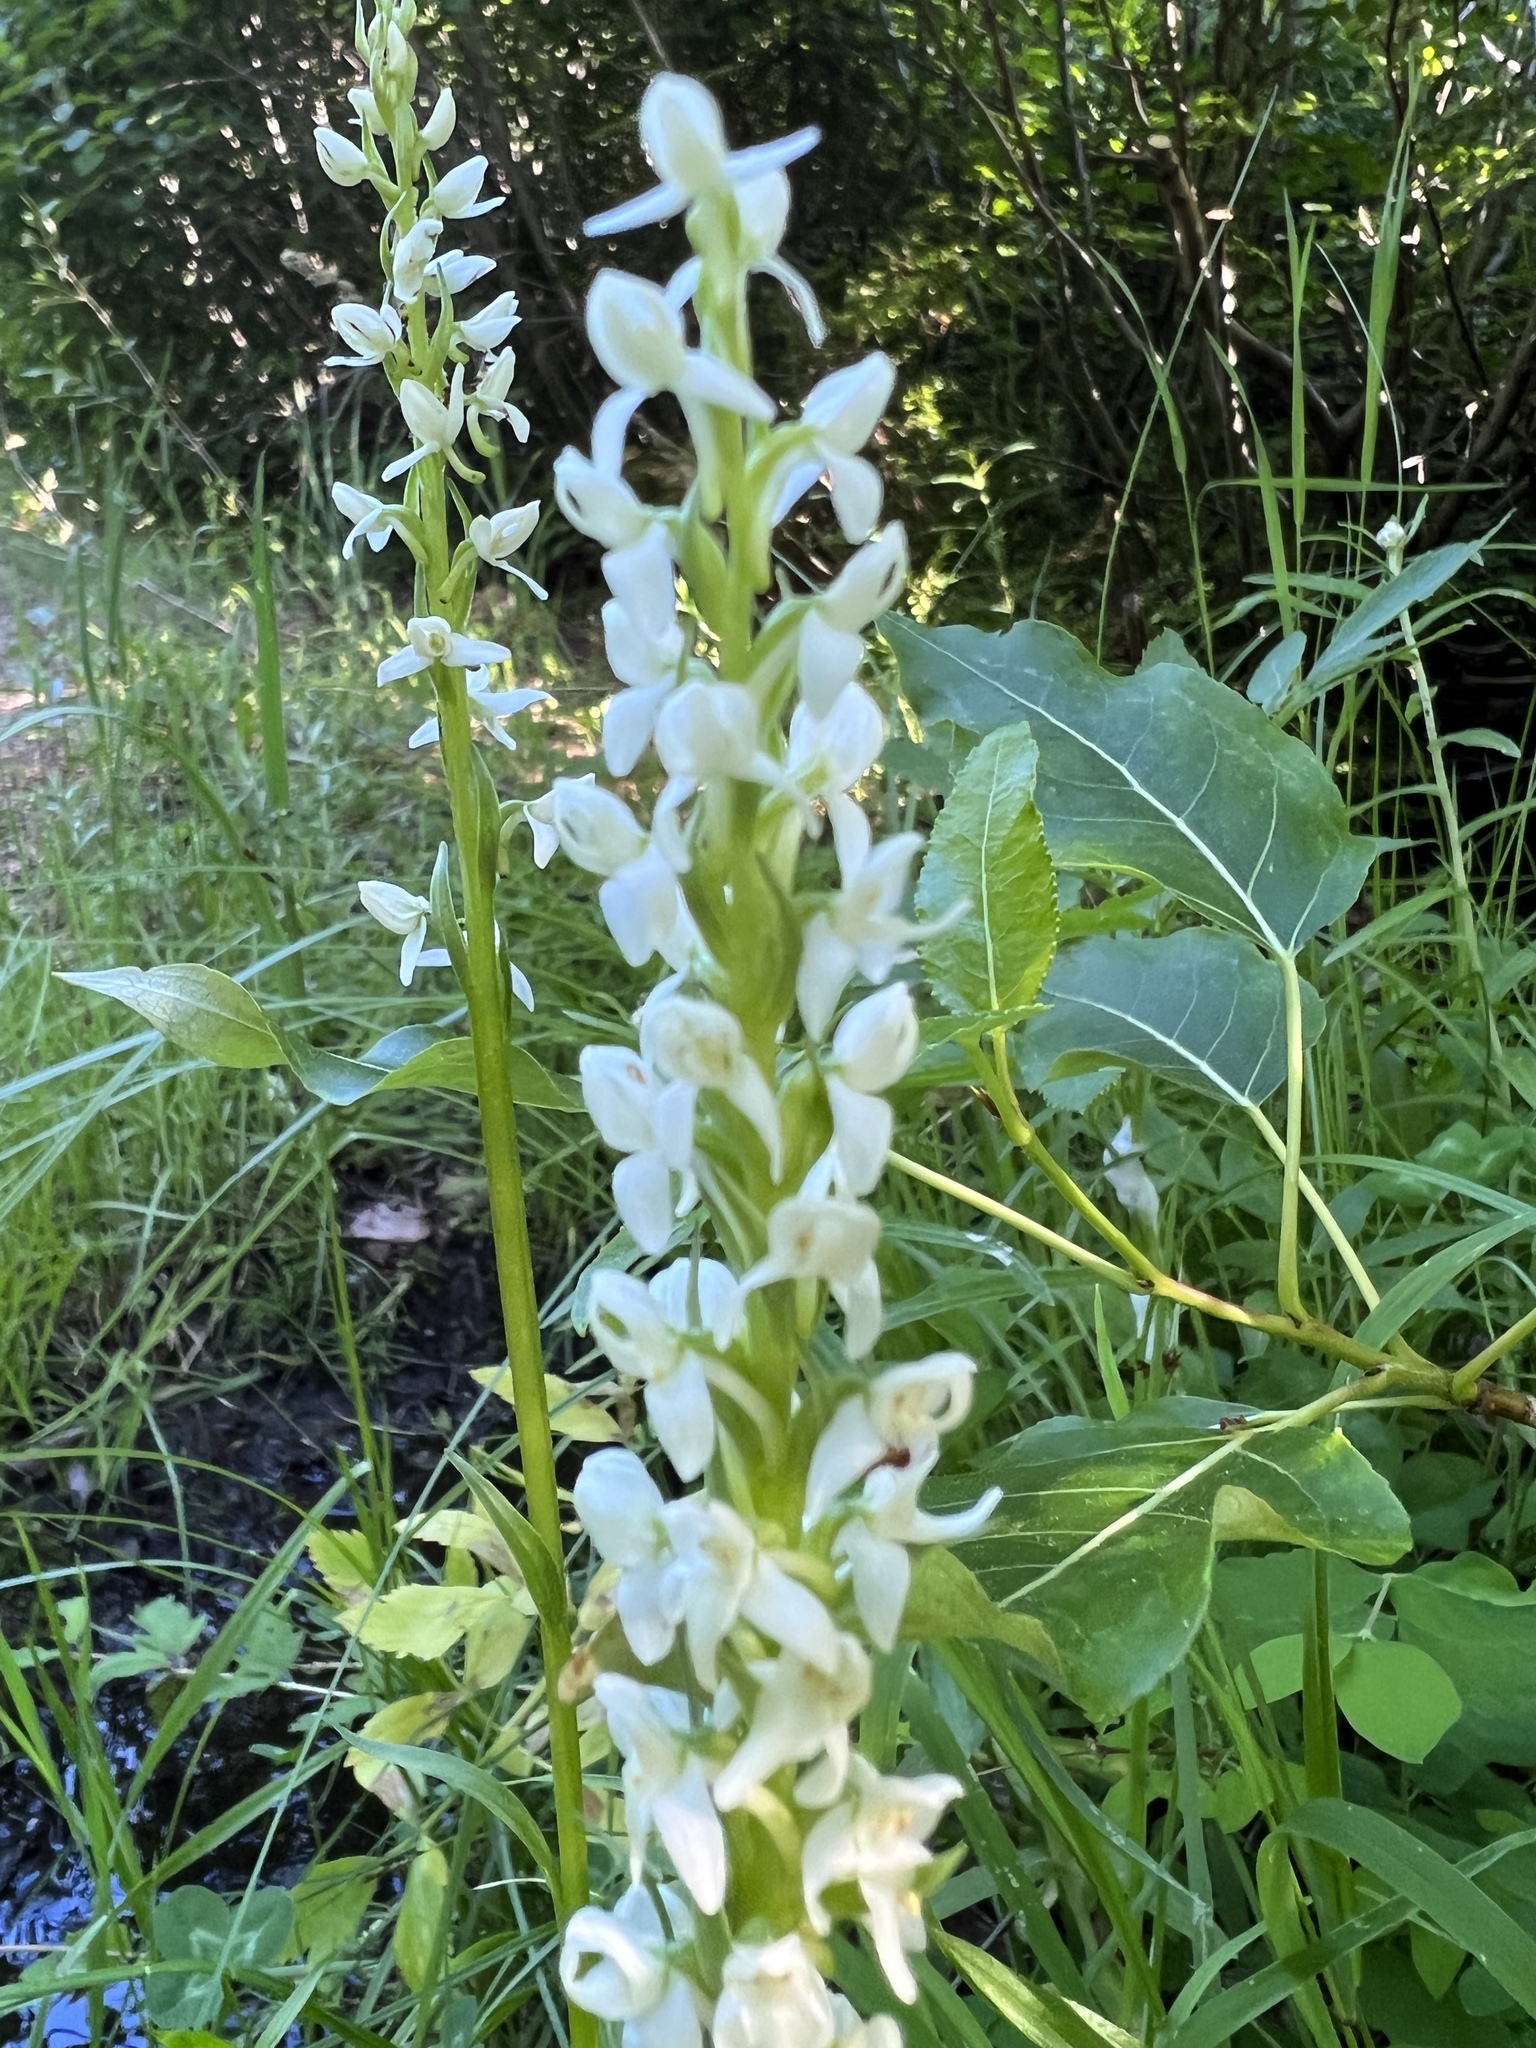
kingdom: Plantae
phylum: Tracheophyta
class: Liliopsida
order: Asparagales
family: Orchidaceae
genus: Platanthera
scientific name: Platanthera dilatata
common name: Bog candles
